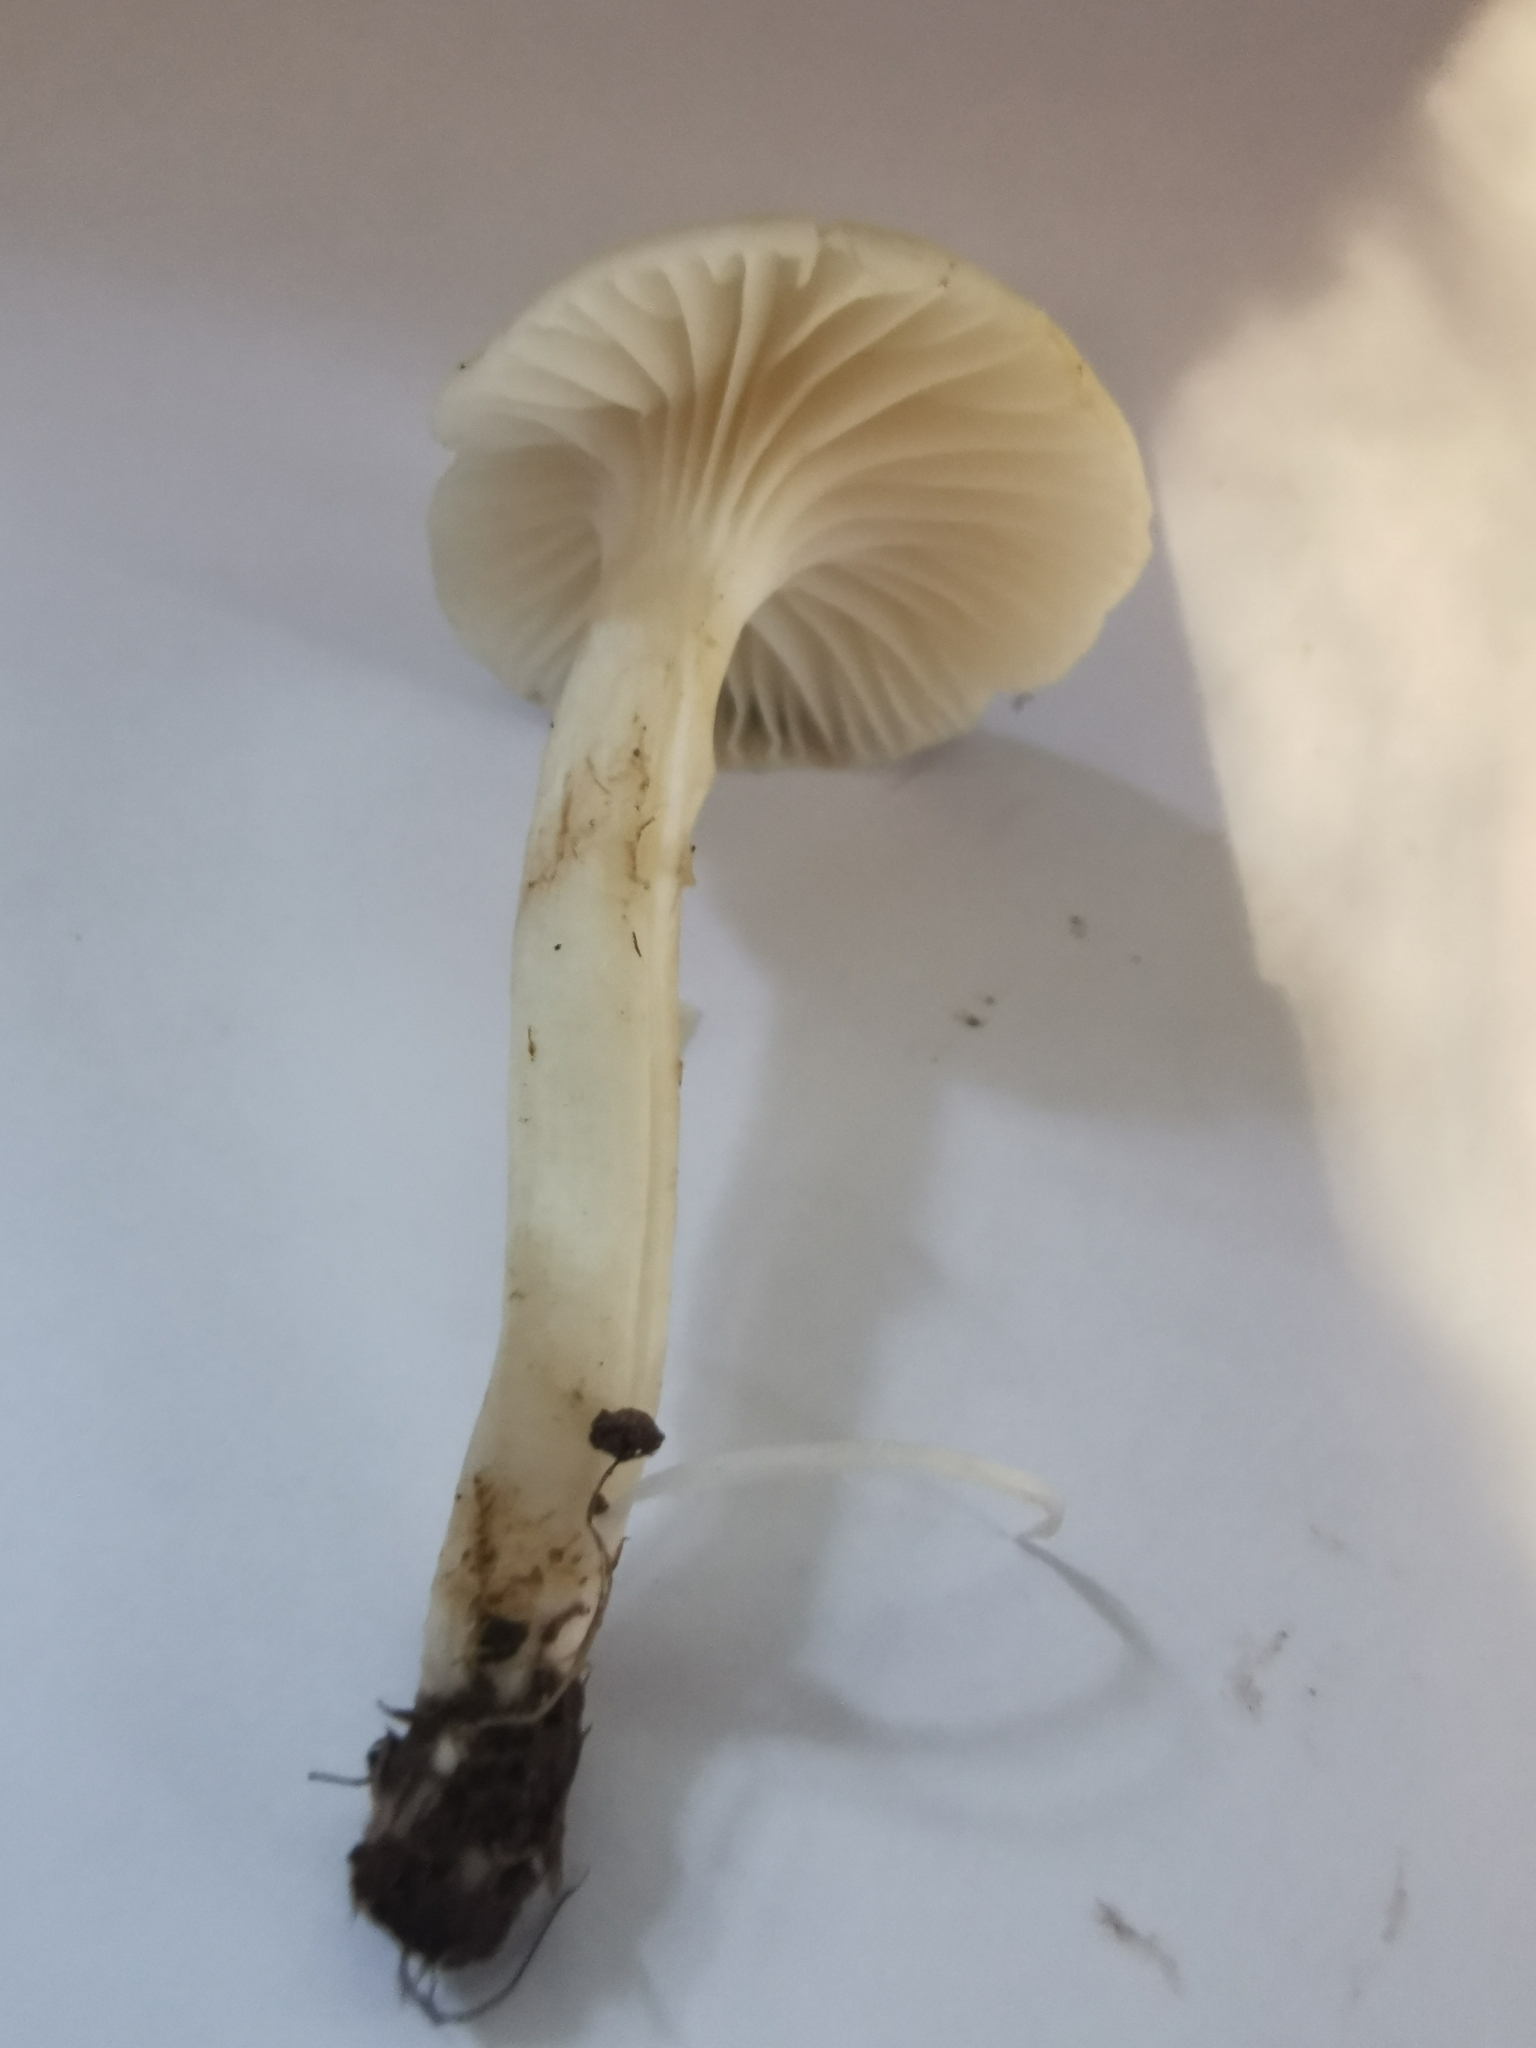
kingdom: Fungi
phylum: Basidiomycota
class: Agaricomycetes
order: Agaricales
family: Hygrophoraceae
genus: Cuphophyllus
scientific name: Cuphophyllus virgineus
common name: Snowy waxcap
